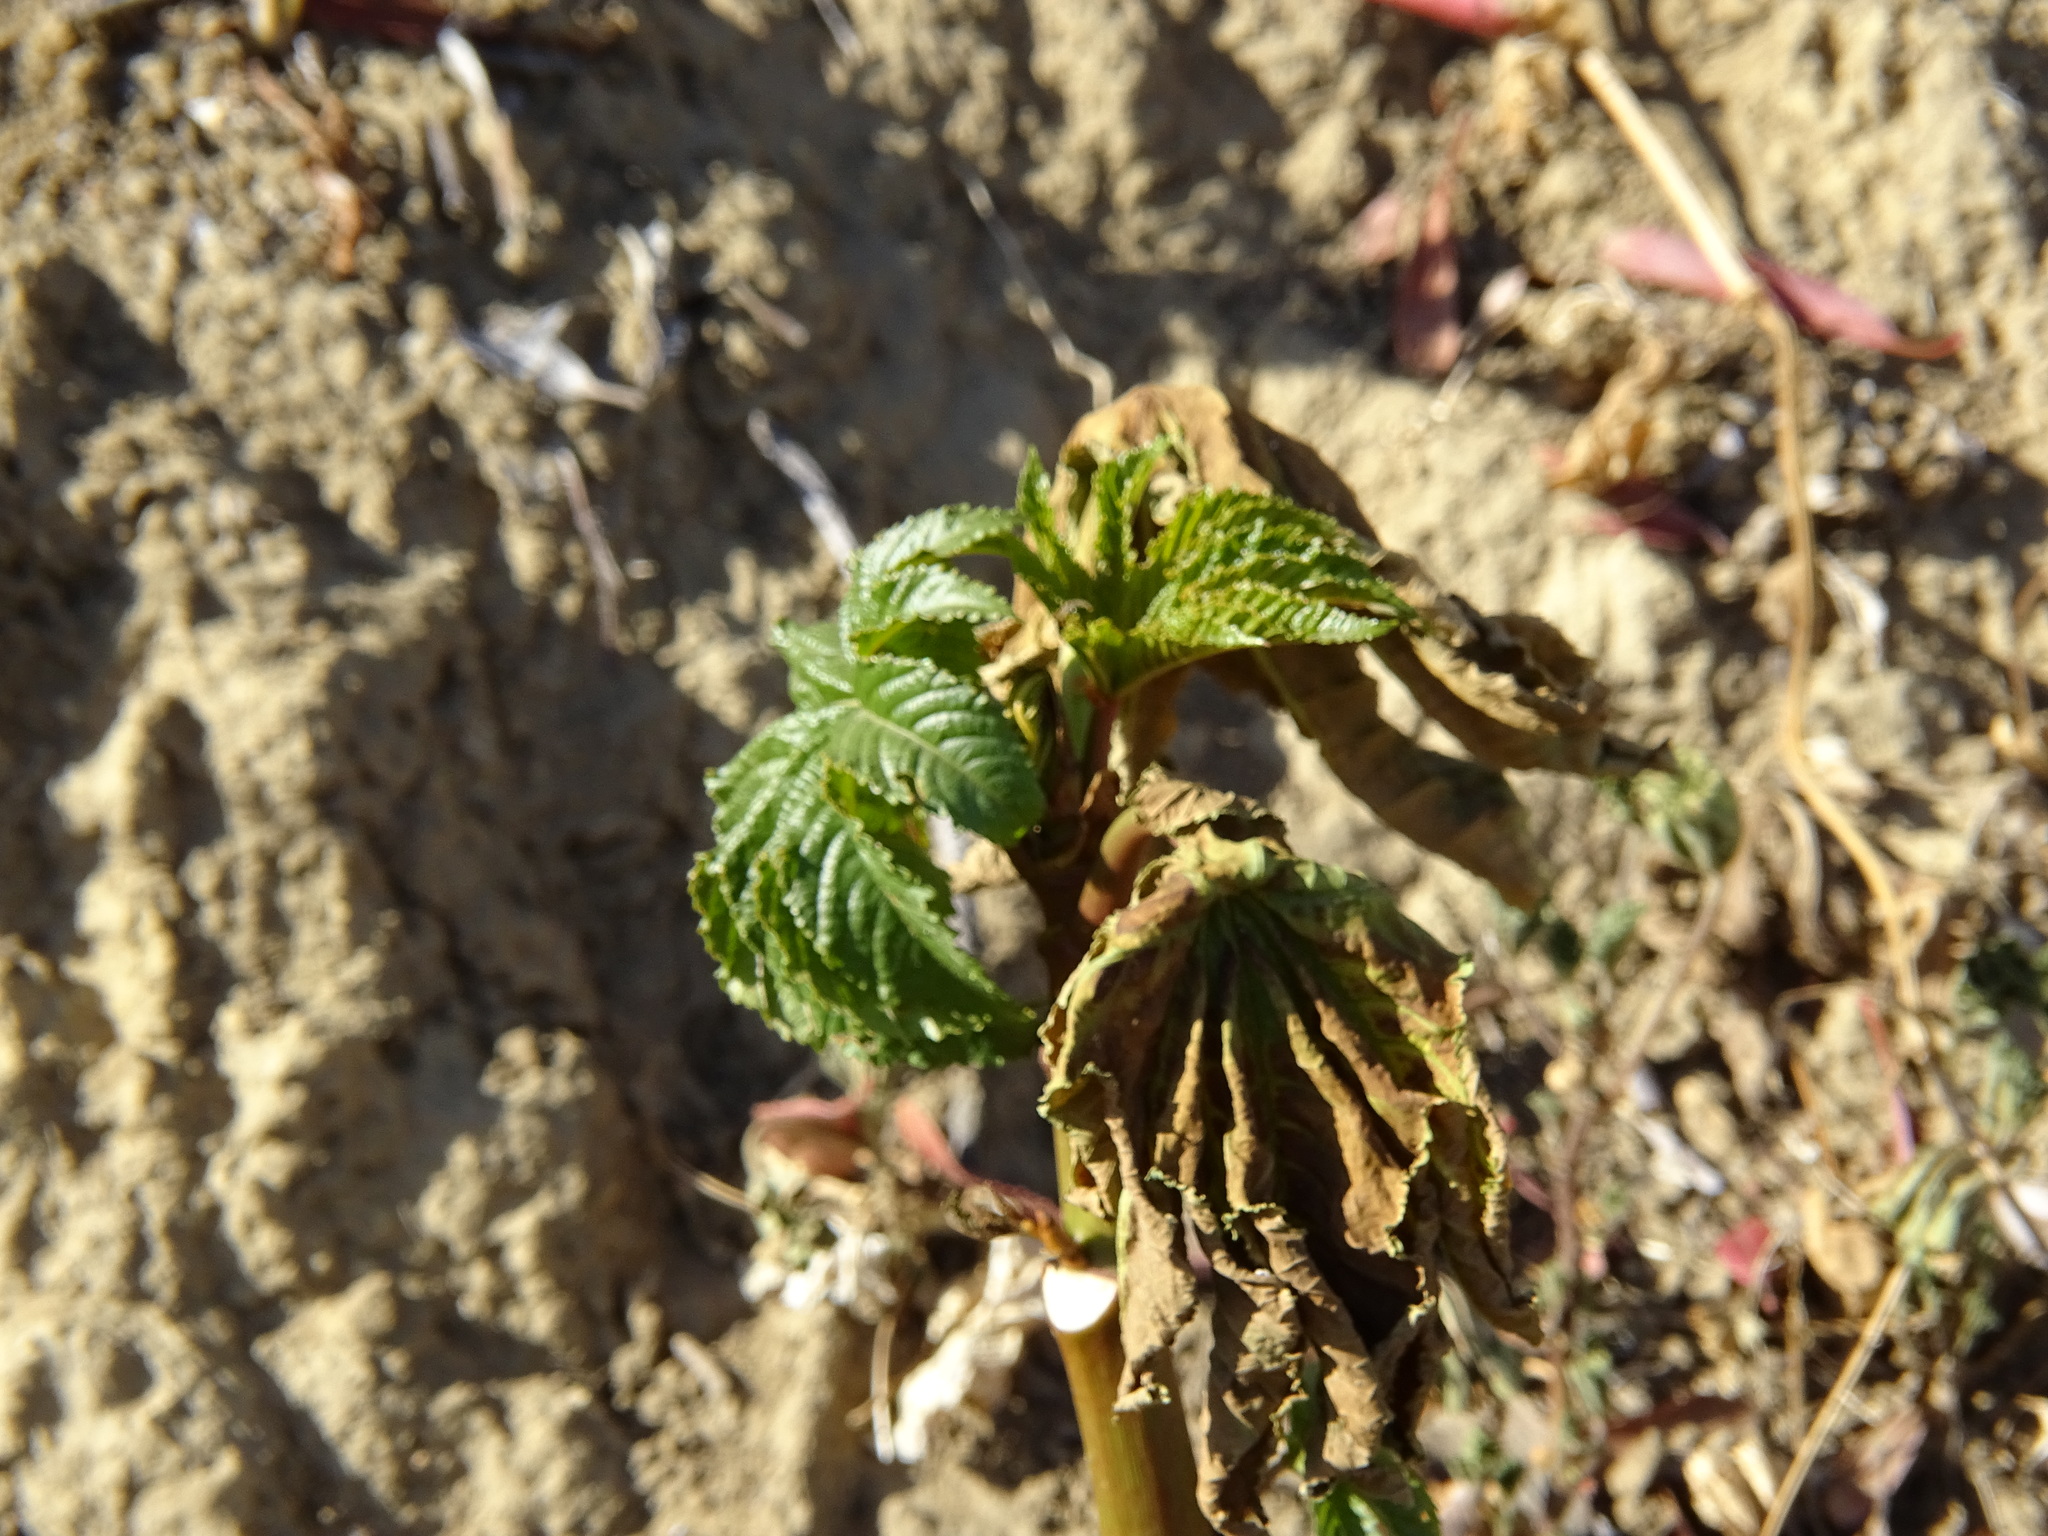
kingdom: Plantae
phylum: Tracheophyta
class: Magnoliopsida
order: Malpighiales
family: Euphorbiaceae
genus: Ricinus
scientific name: Ricinus communis
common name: Castor-oil-plant
